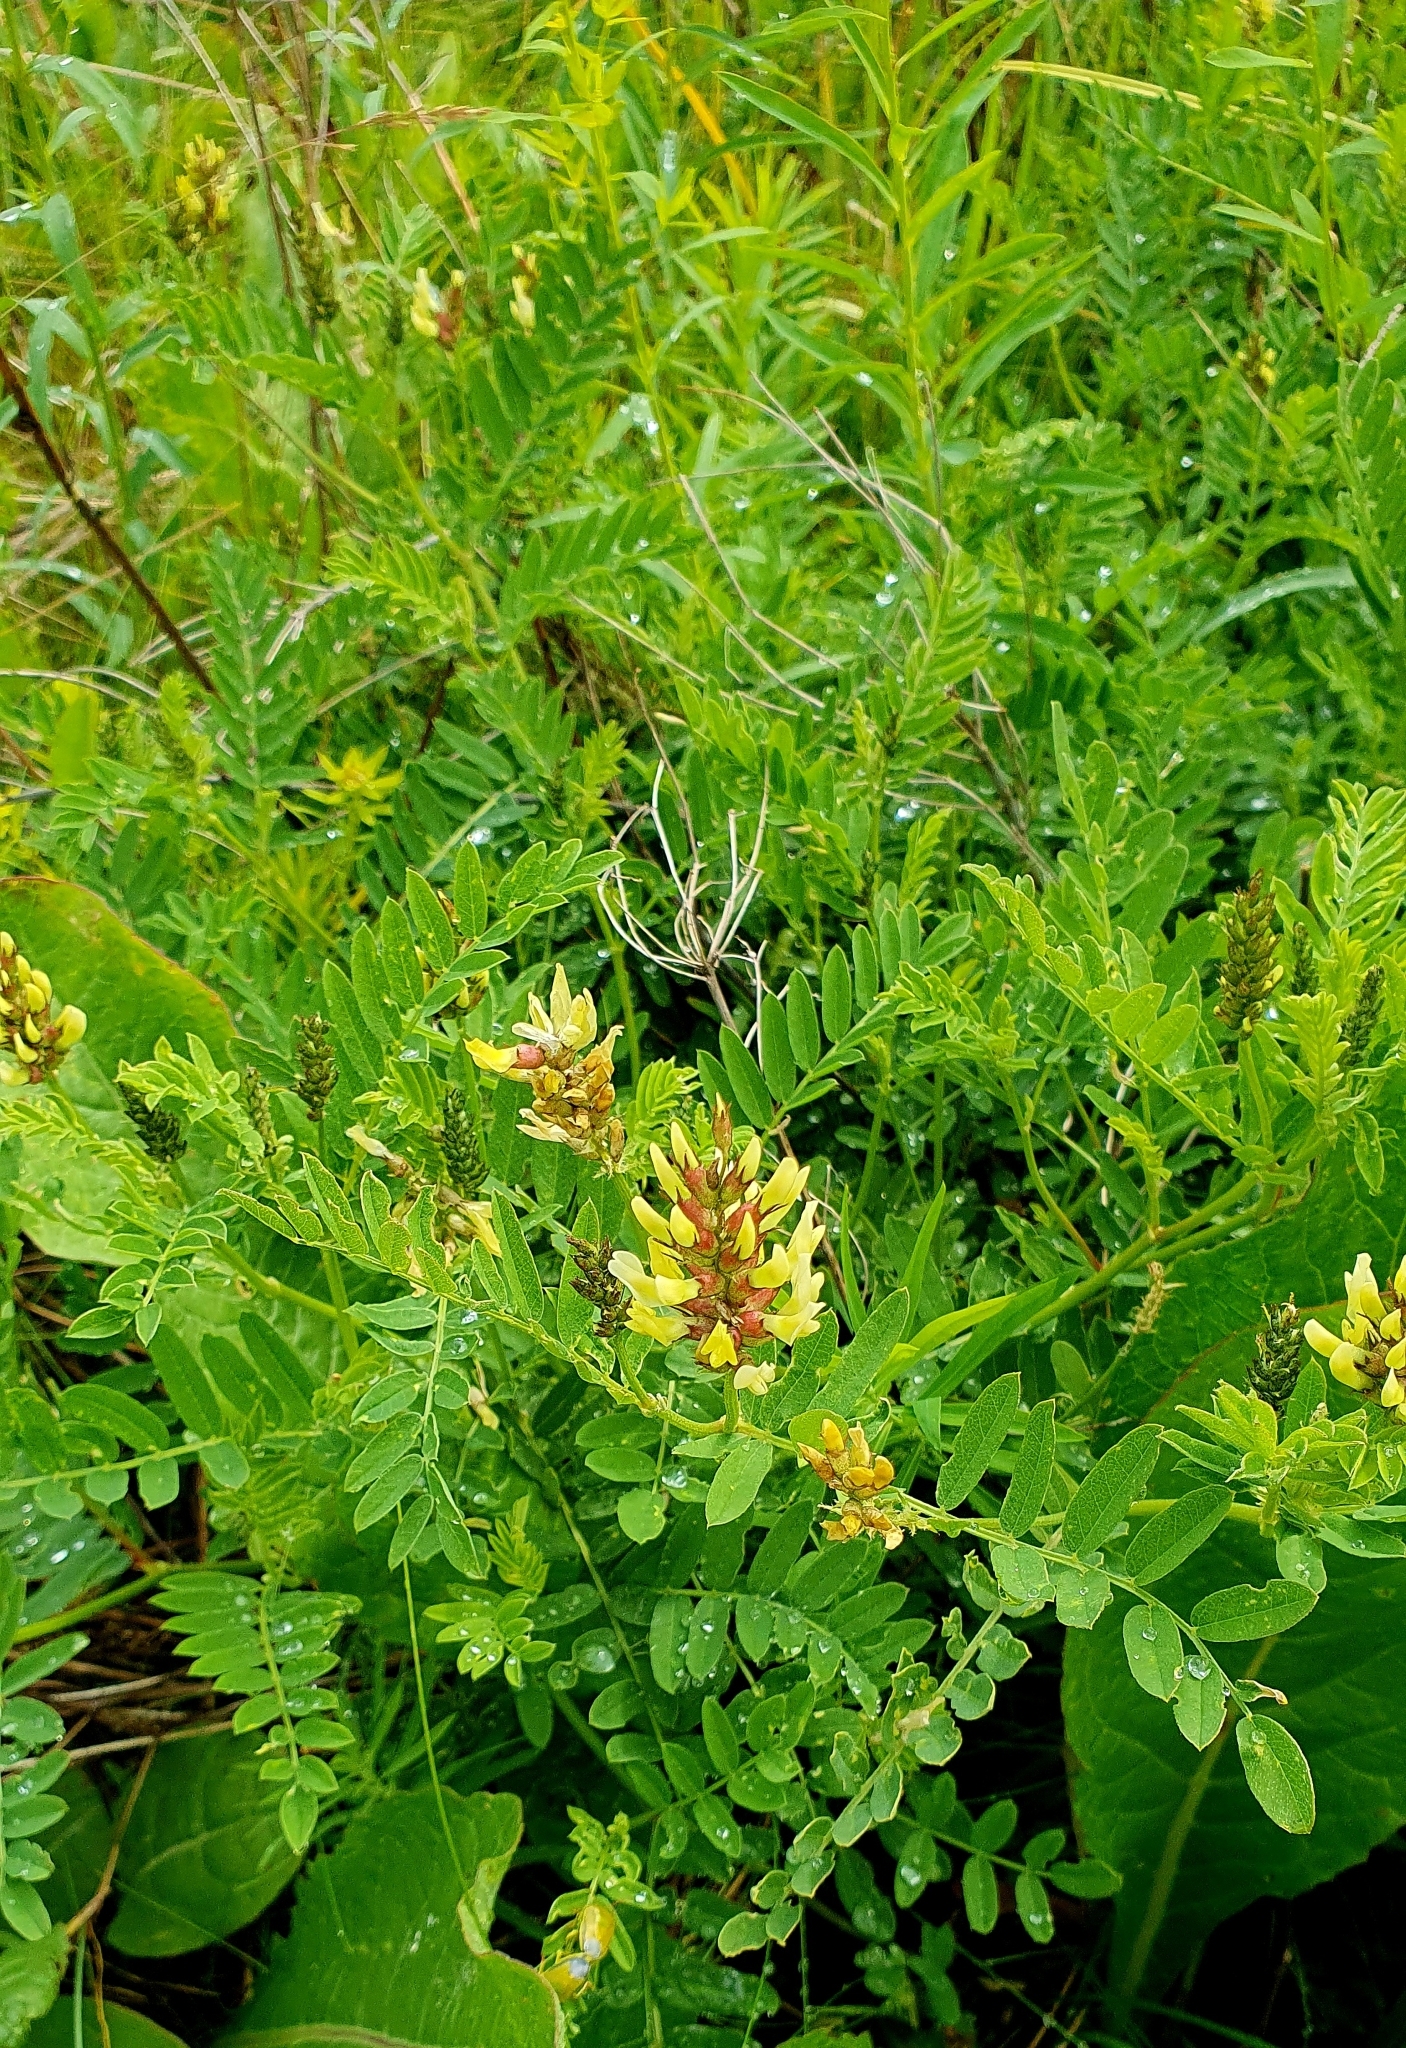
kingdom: Plantae
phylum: Tracheophyta
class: Magnoliopsida
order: Fabales
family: Fabaceae
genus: Astragalus
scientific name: Astragalus cicer
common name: Chick-pea milk-vetch
